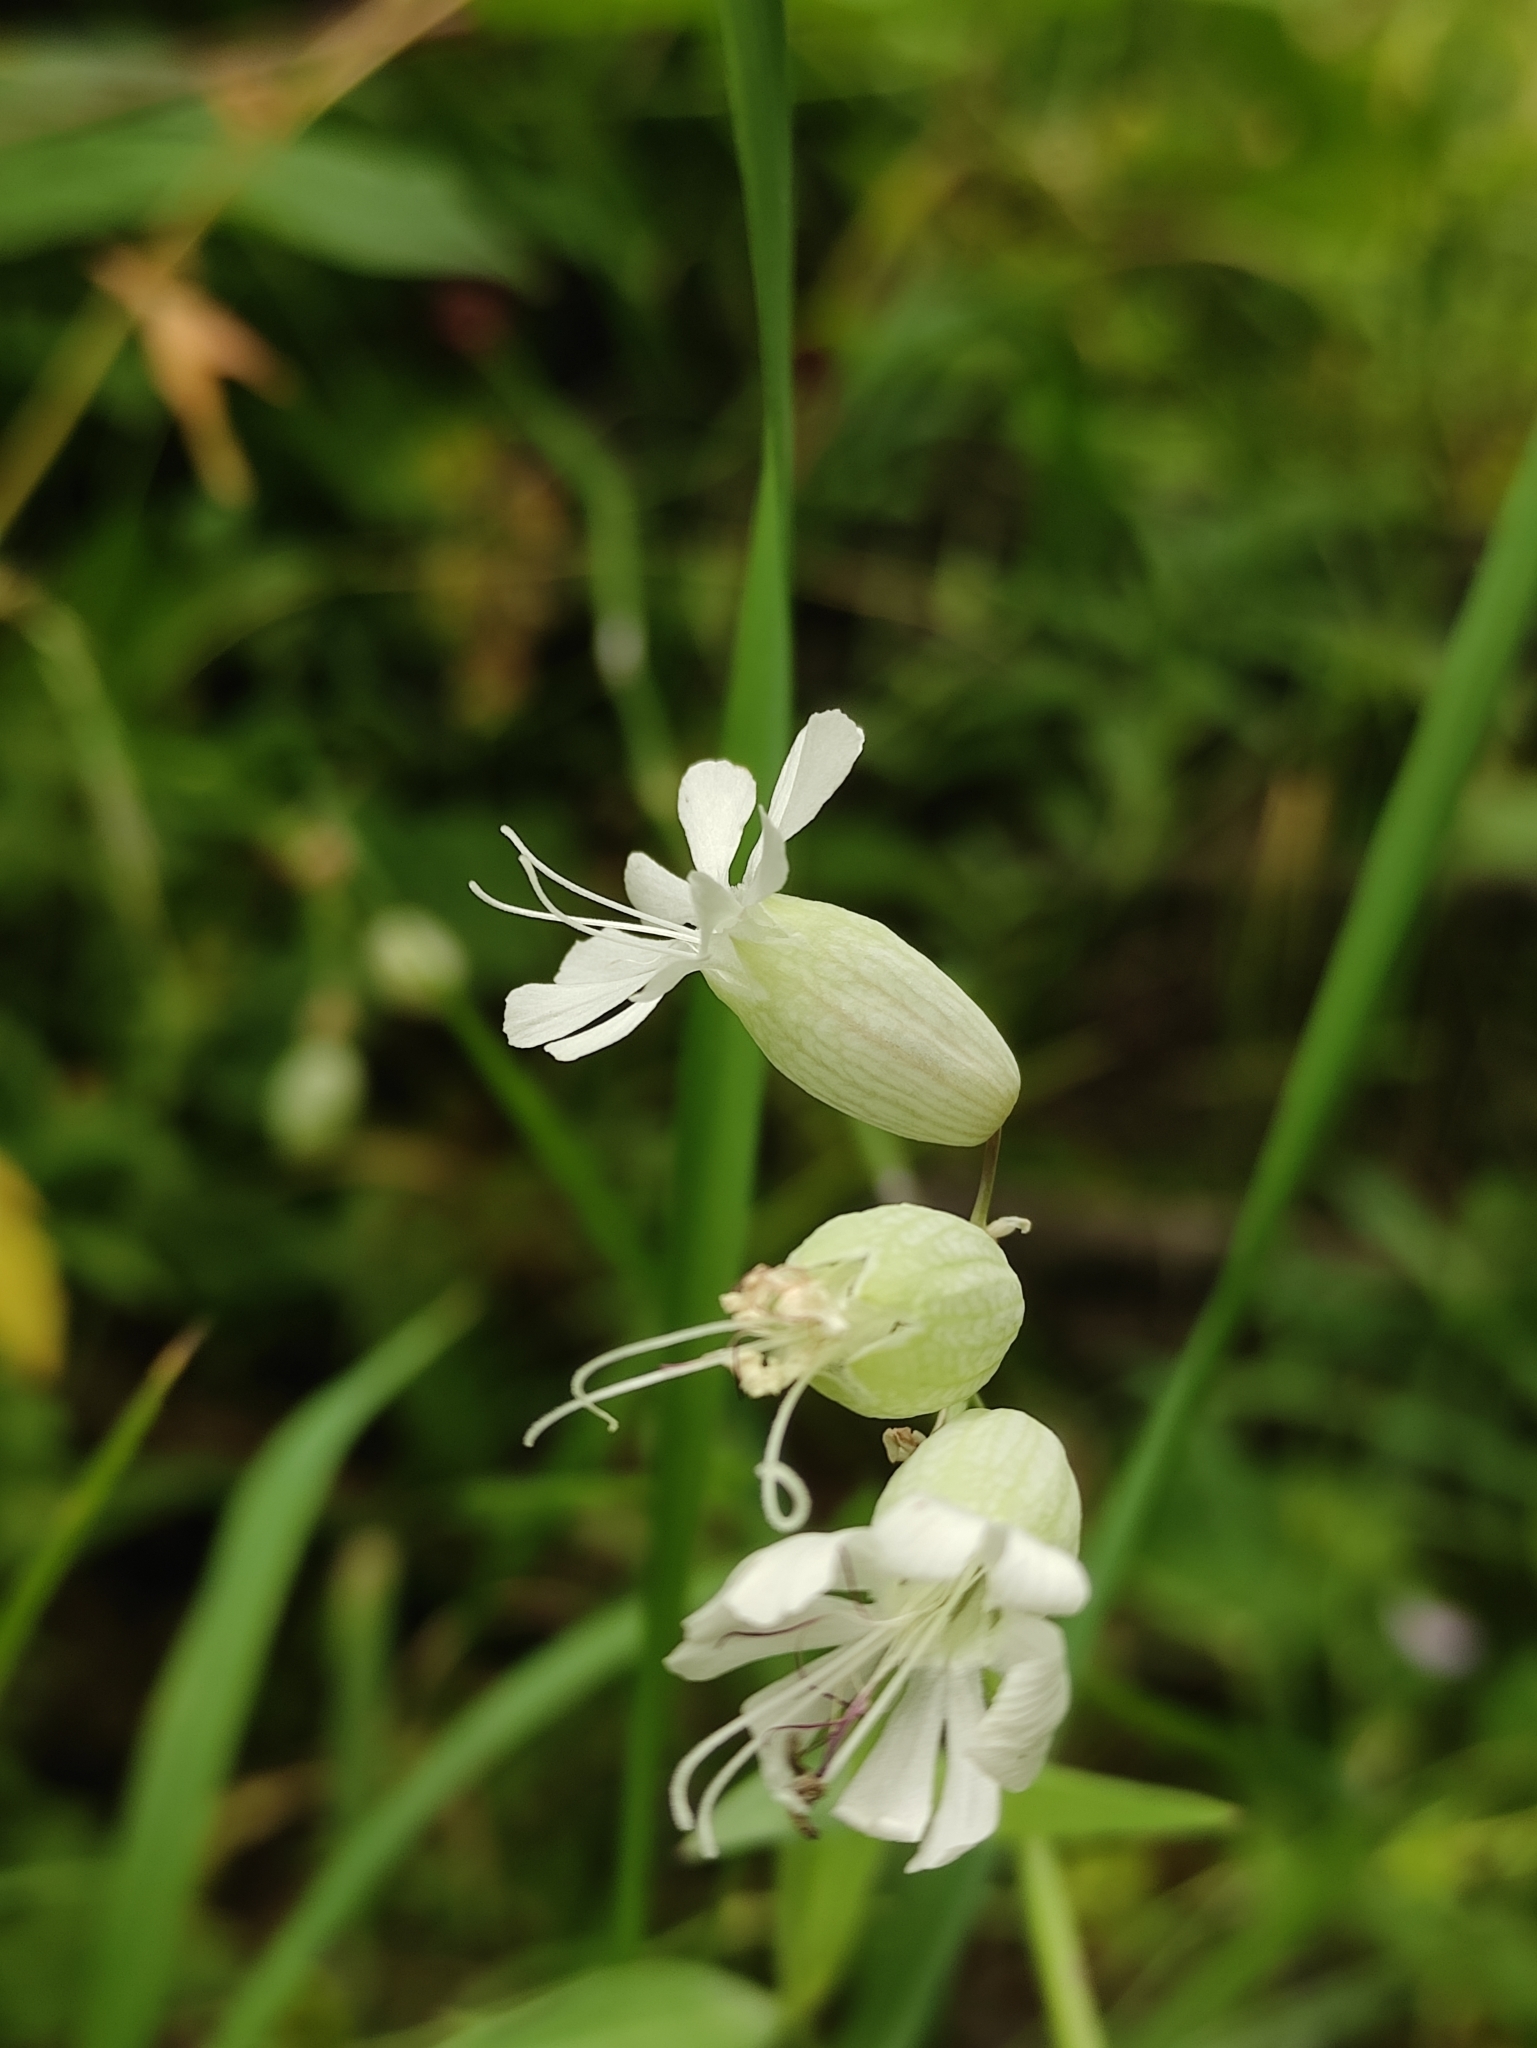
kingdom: Plantae
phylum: Tracheophyta
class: Magnoliopsida
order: Caryophyllales
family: Caryophyllaceae
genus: Silene
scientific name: Silene vulgaris
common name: Bladder campion
